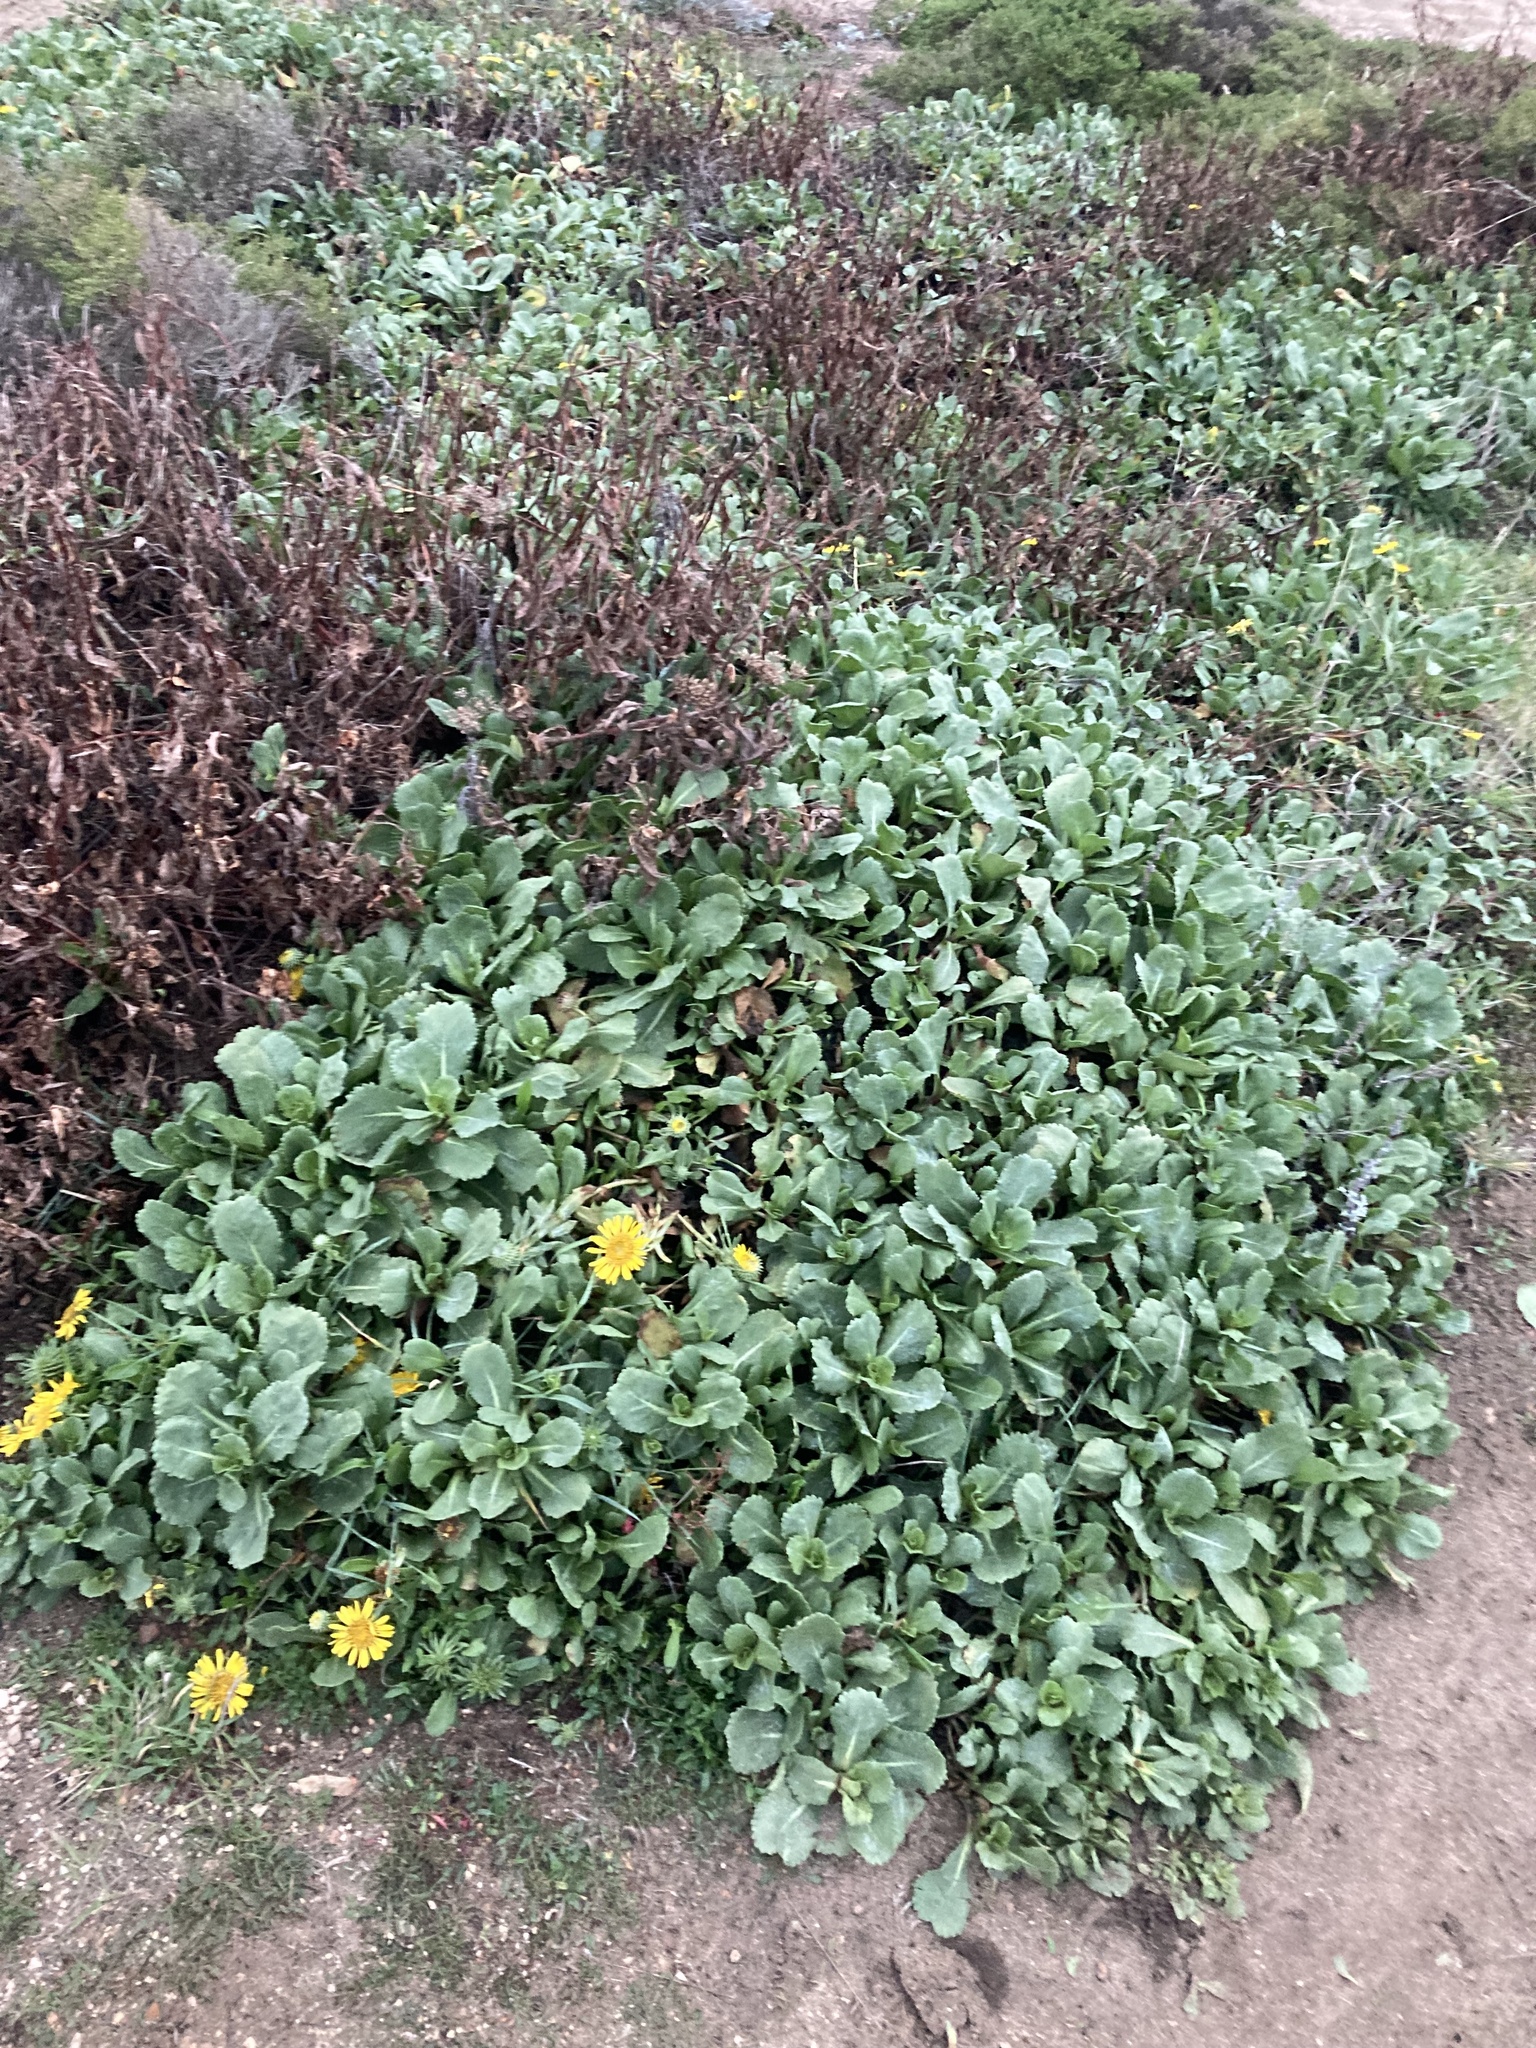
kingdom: Plantae
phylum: Tracheophyta
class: Magnoliopsida
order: Asterales
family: Asteraceae
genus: Grindelia
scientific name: Grindelia hirsutula
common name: Hairy gumweed
